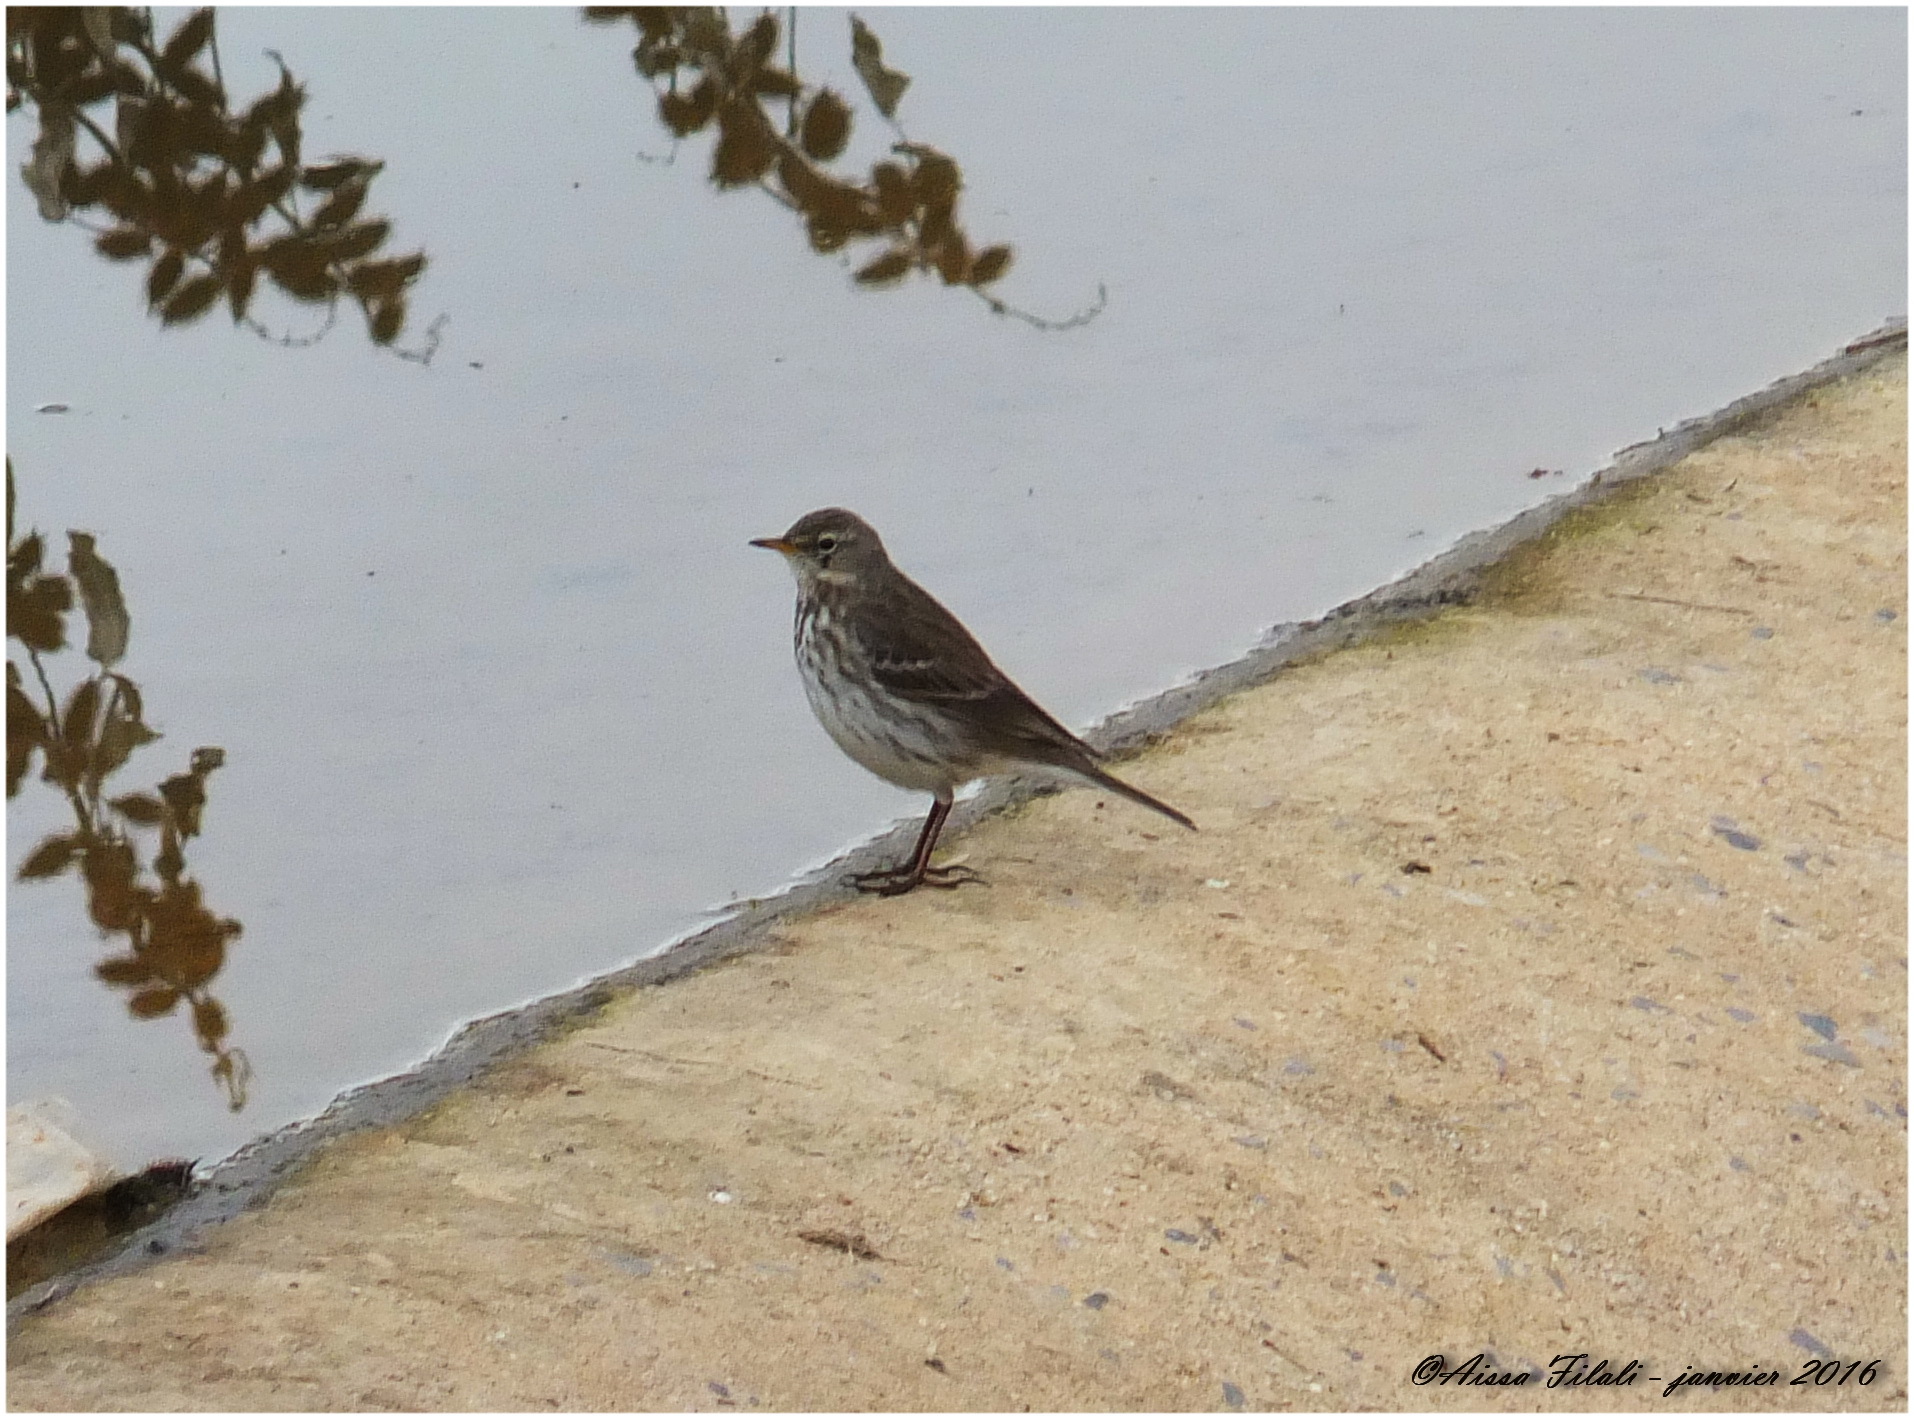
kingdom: Animalia
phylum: Chordata
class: Aves
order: Passeriformes
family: Motacillidae
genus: Anthus
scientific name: Anthus spinoletta
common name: Water pipit
